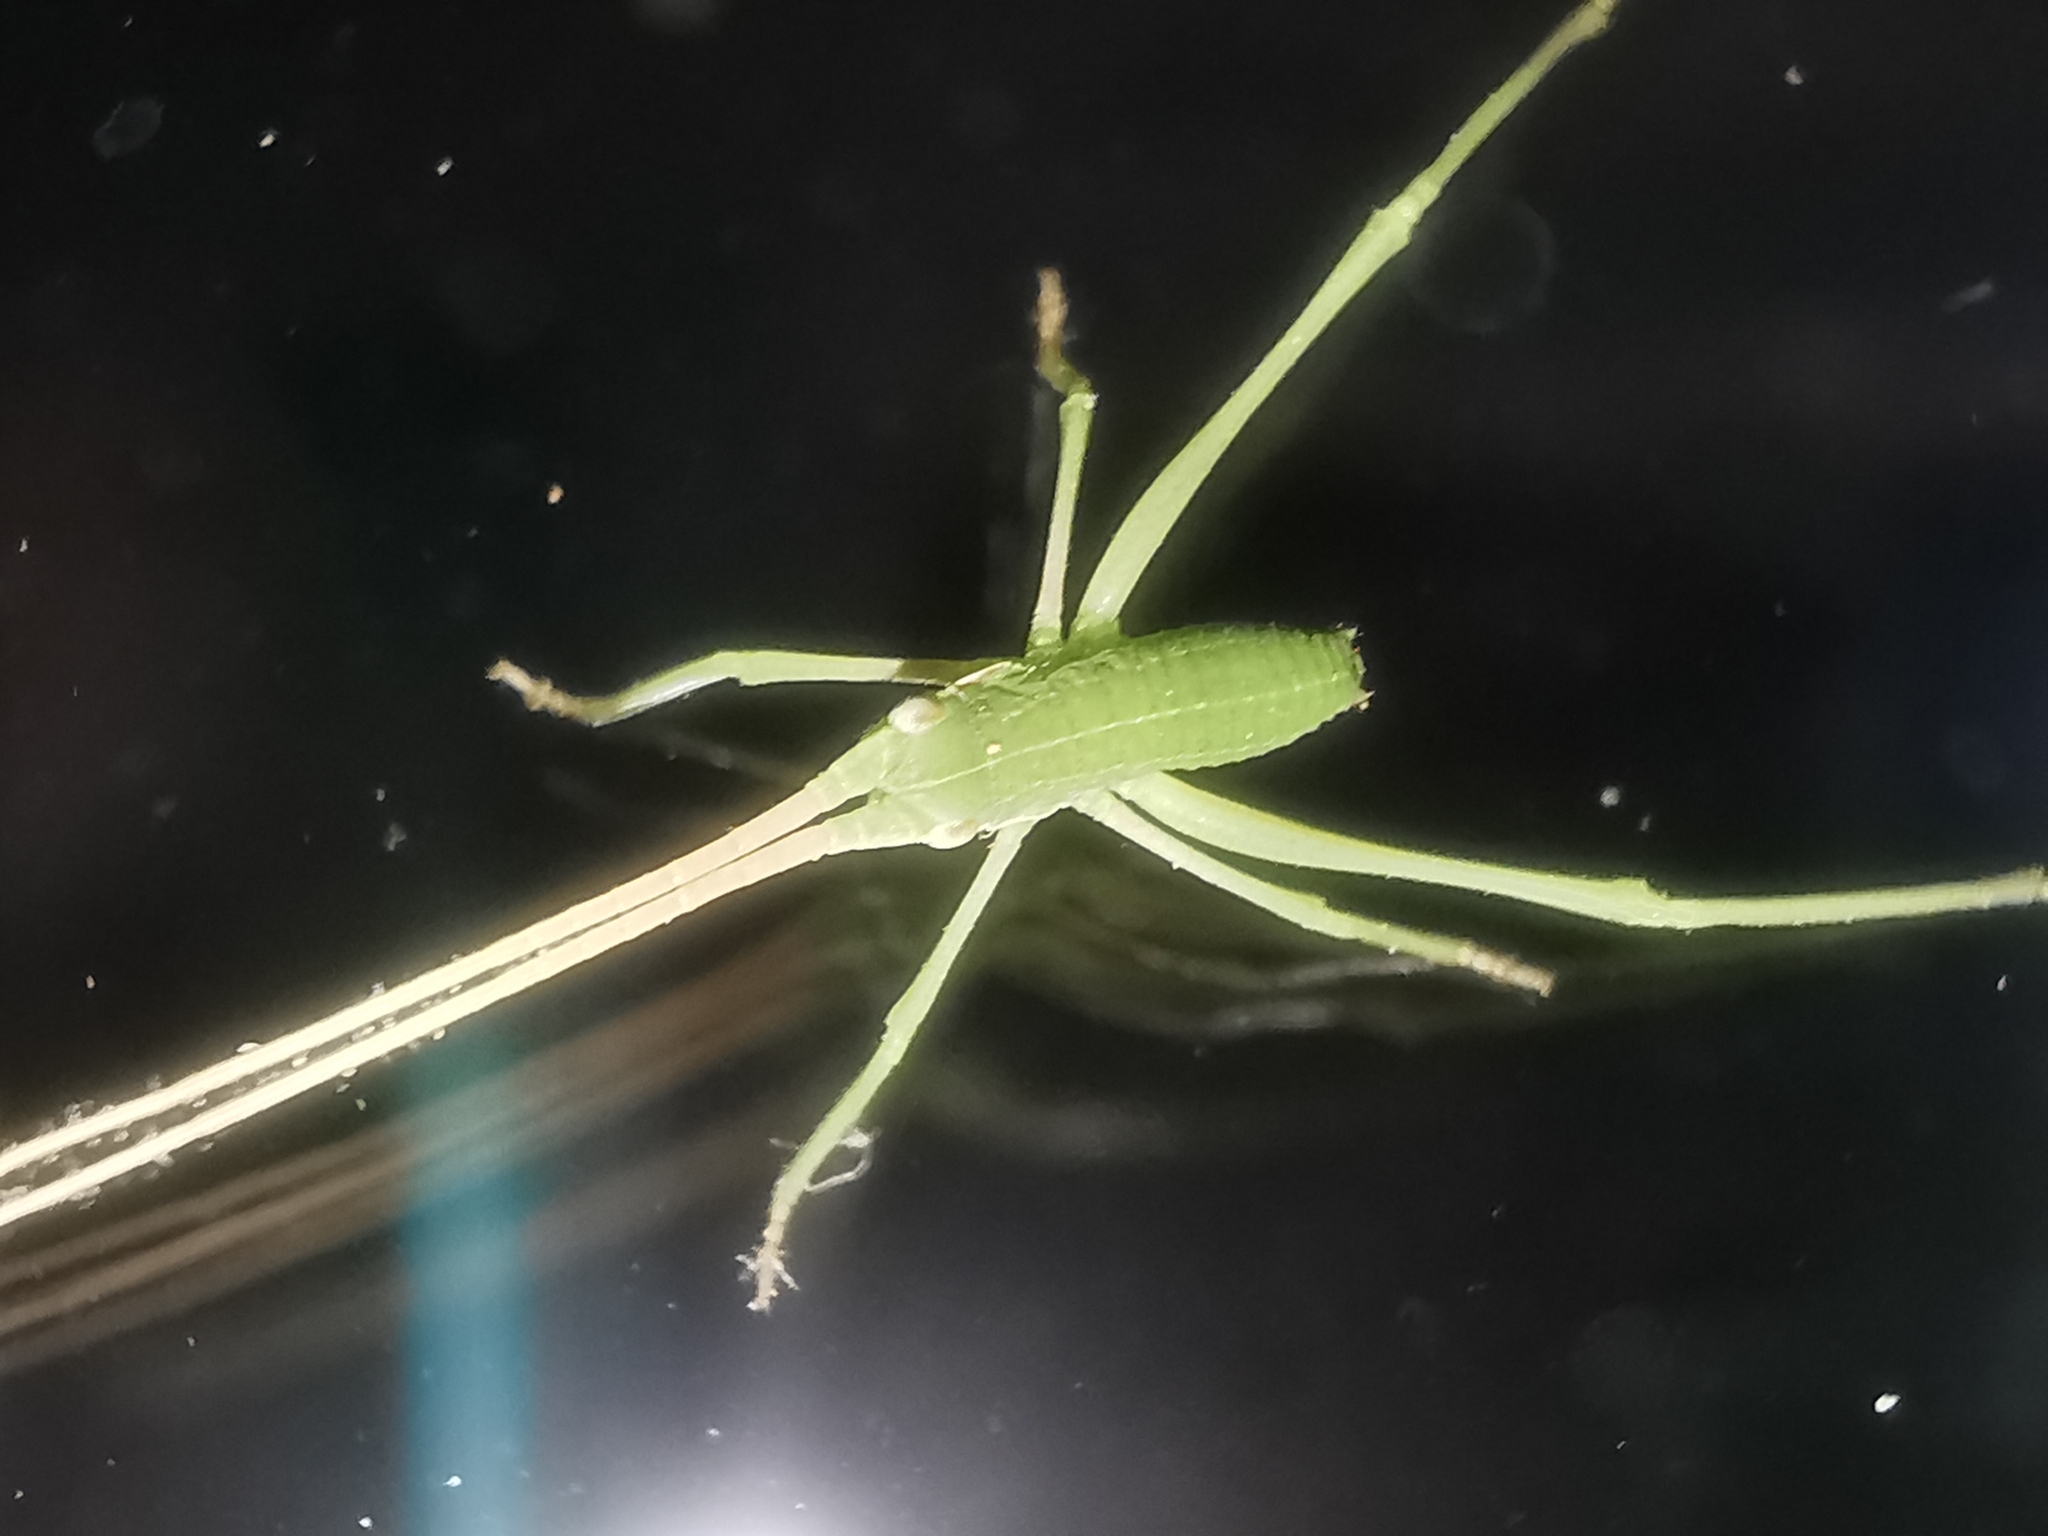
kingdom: Animalia
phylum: Arthropoda
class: Insecta
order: Orthoptera
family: Tettigoniidae
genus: Acrometopa
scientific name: Acrometopa
